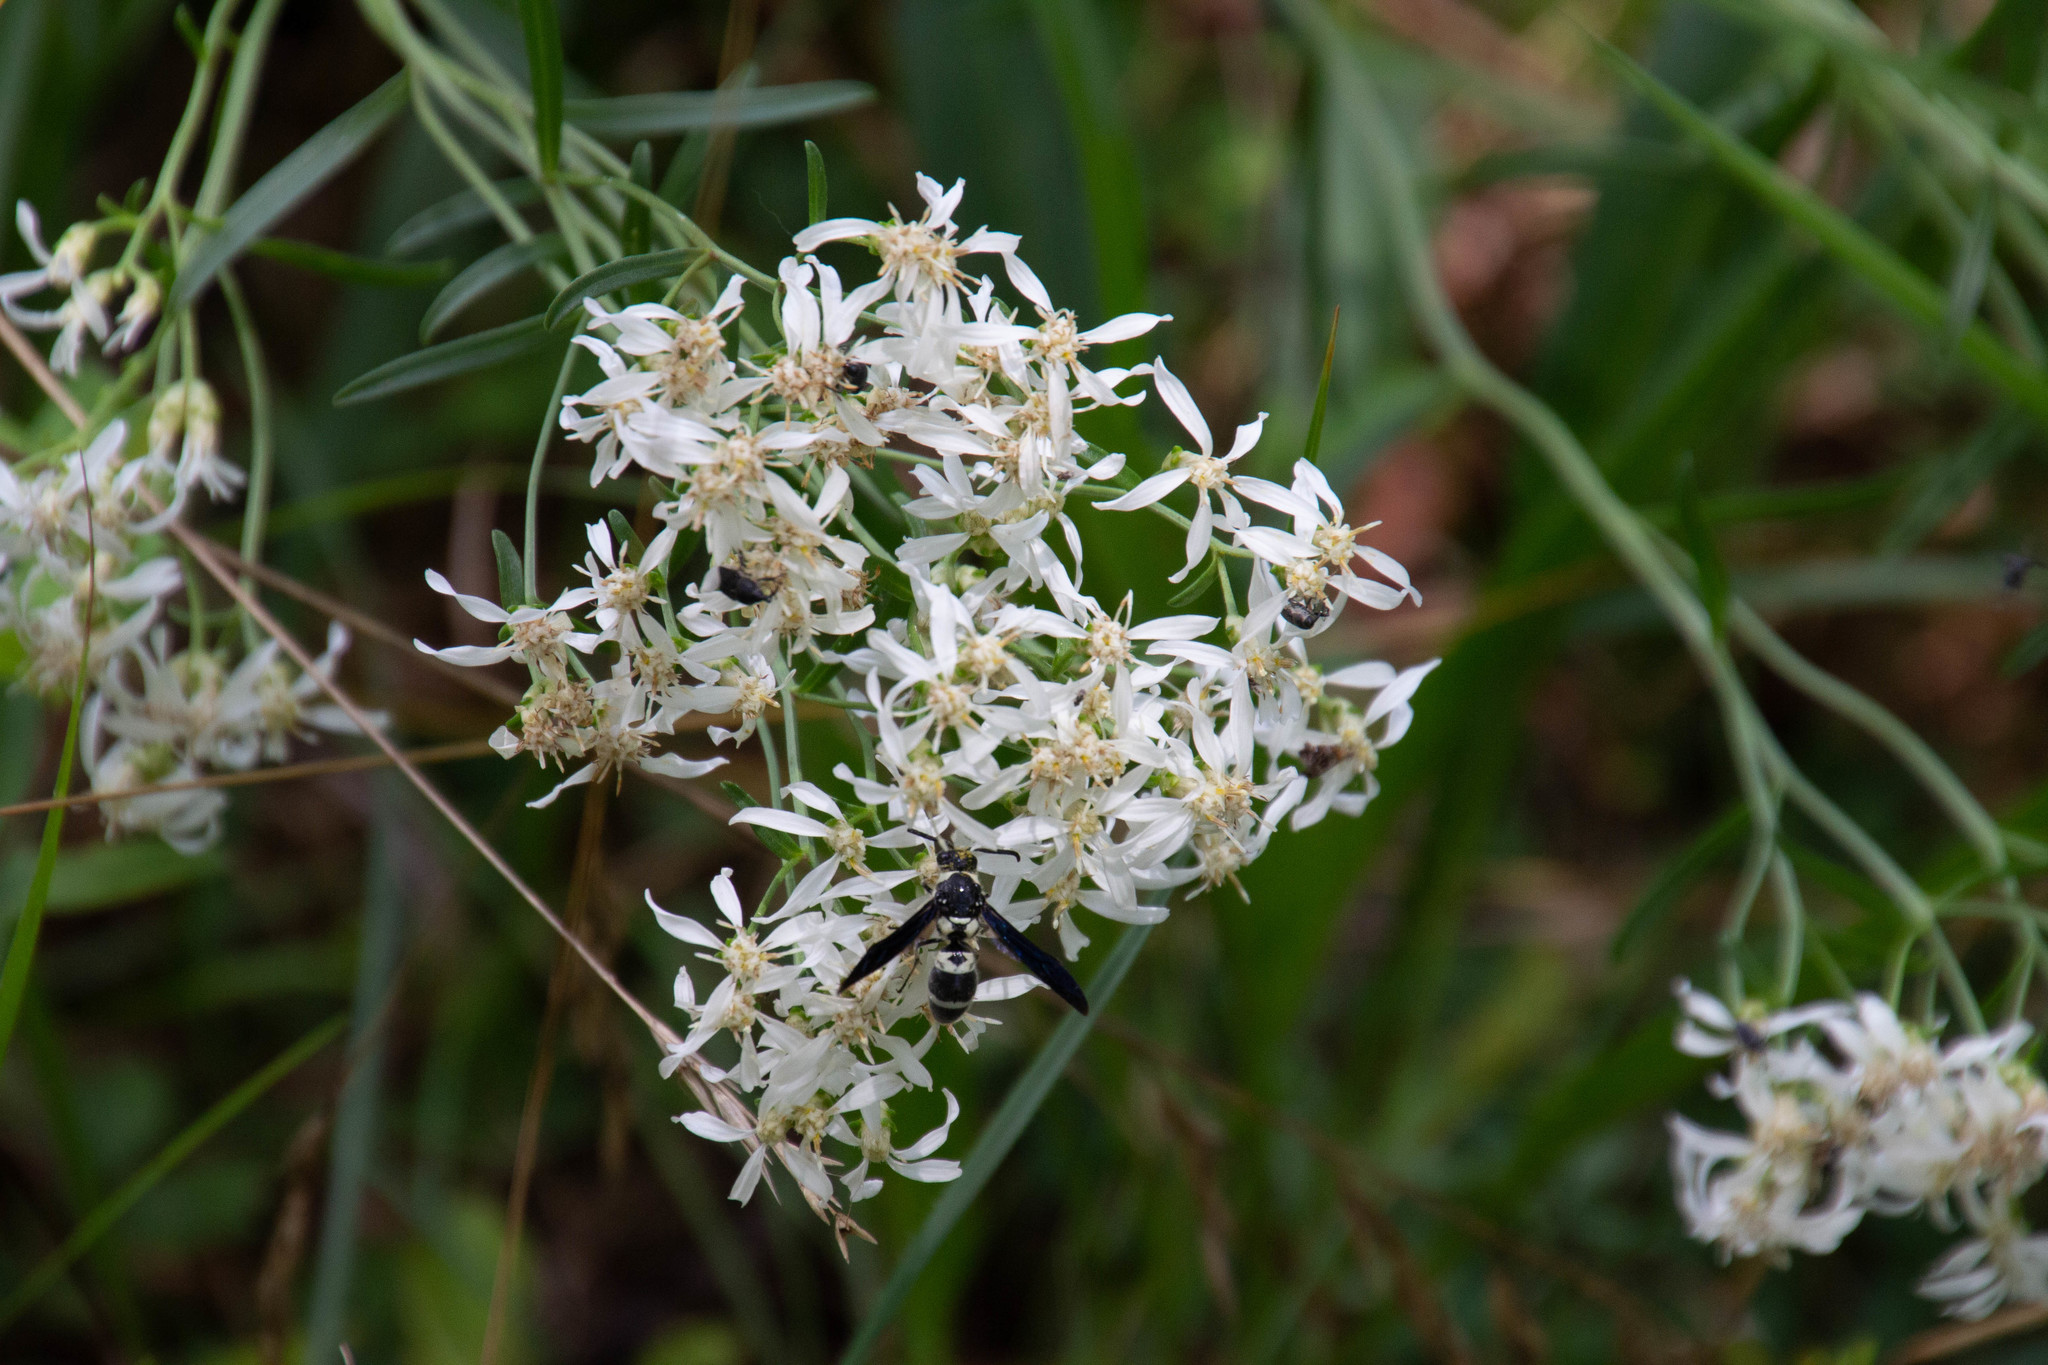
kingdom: Animalia
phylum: Arthropoda
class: Insecta
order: Hymenoptera
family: Eumenidae
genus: Pseudodynerus
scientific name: Pseudodynerus quadrisectus
